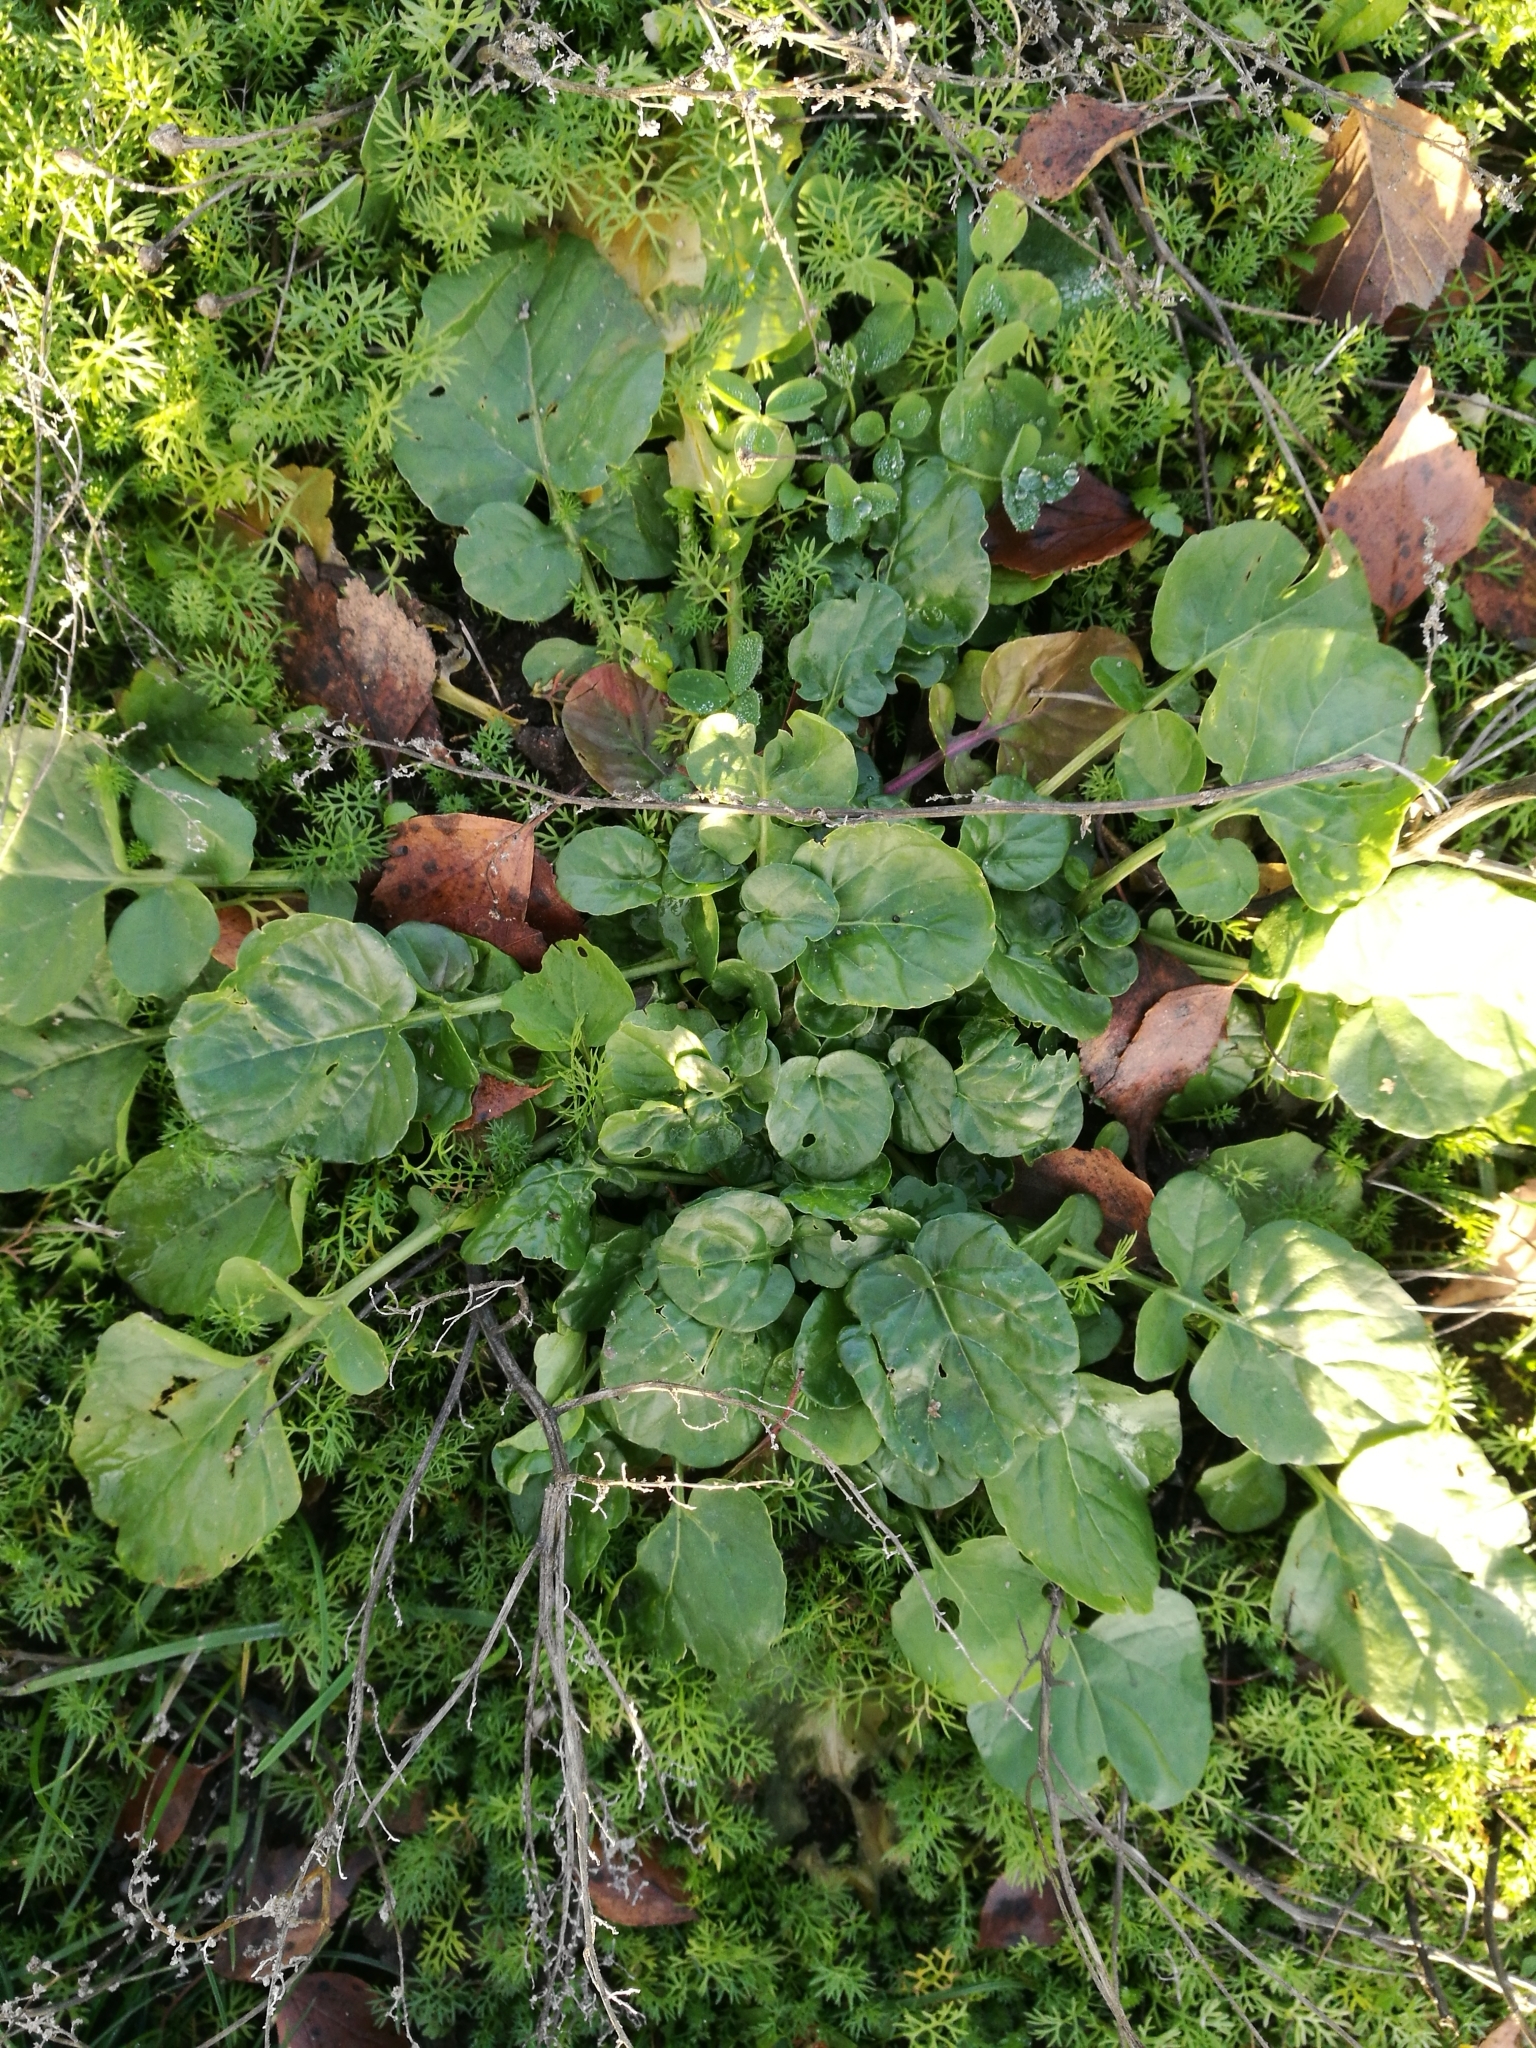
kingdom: Plantae
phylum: Tracheophyta
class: Magnoliopsida
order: Brassicales
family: Brassicaceae
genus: Barbarea
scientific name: Barbarea vulgaris
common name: Cressy-greens
